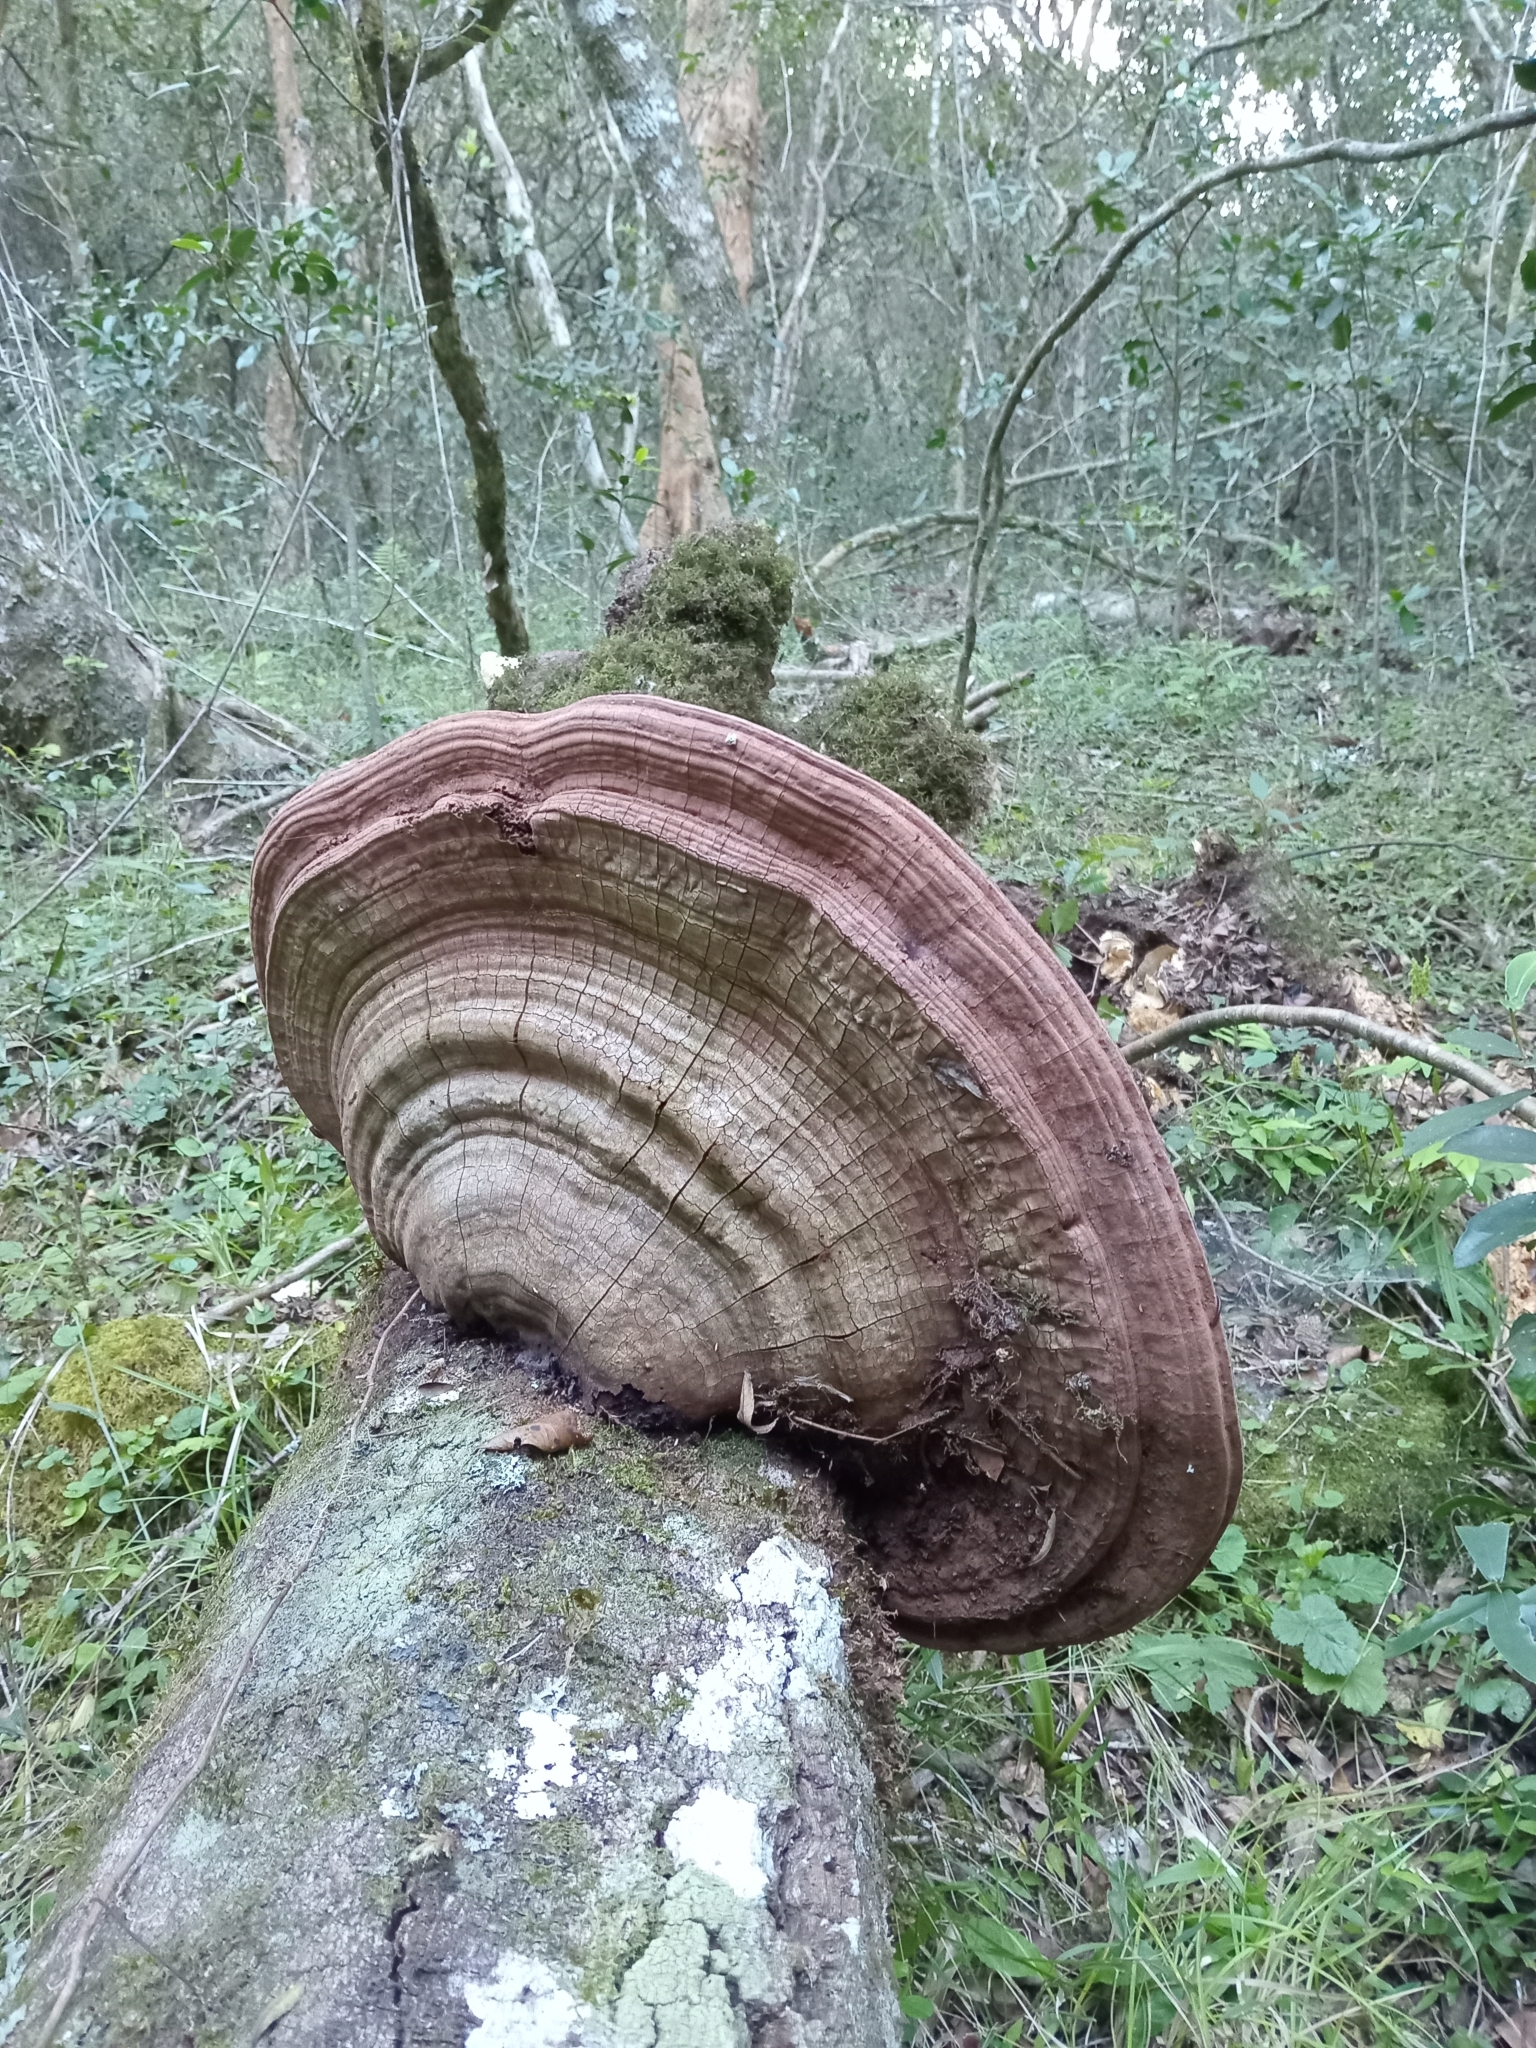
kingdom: Fungi
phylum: Basidiomycota
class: Agaricomycetes
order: Polyporales
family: Polyporaceae
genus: Ganoderma
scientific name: Ganoderma australe
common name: Southern bracket
